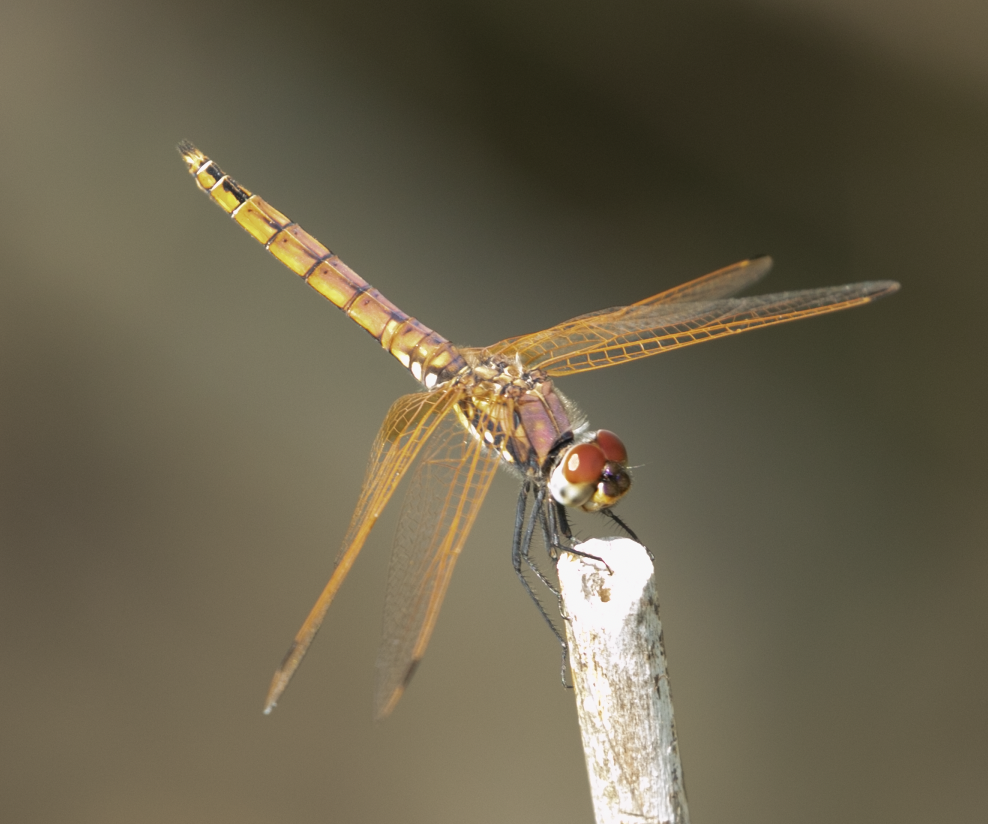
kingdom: Animalia
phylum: Arthropoda
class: Insecta
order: Odonata
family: Libellulidae
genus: Trithemis
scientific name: Trithemis annulata
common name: Violet dropwing
